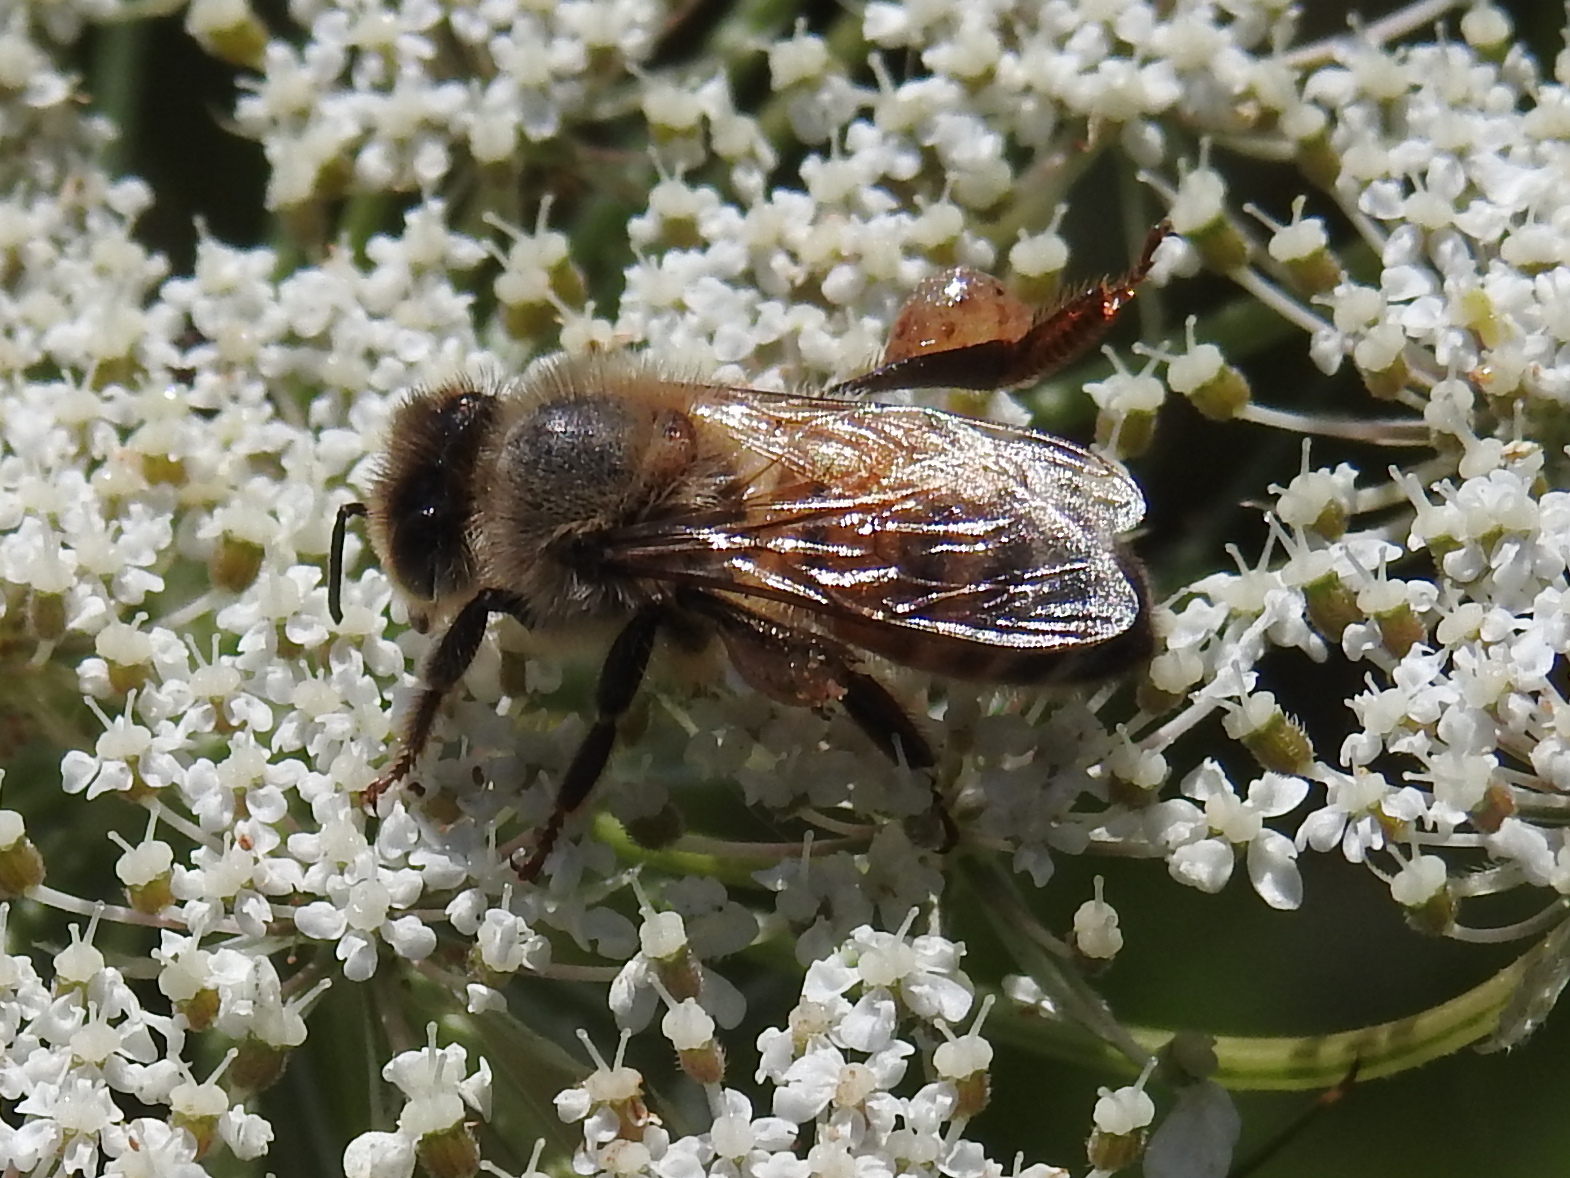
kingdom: Animalia
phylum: Arthropoda
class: Insecta
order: Hymenoptera
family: Apidae
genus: Apis
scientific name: Apis mellifera
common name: Honey bee
